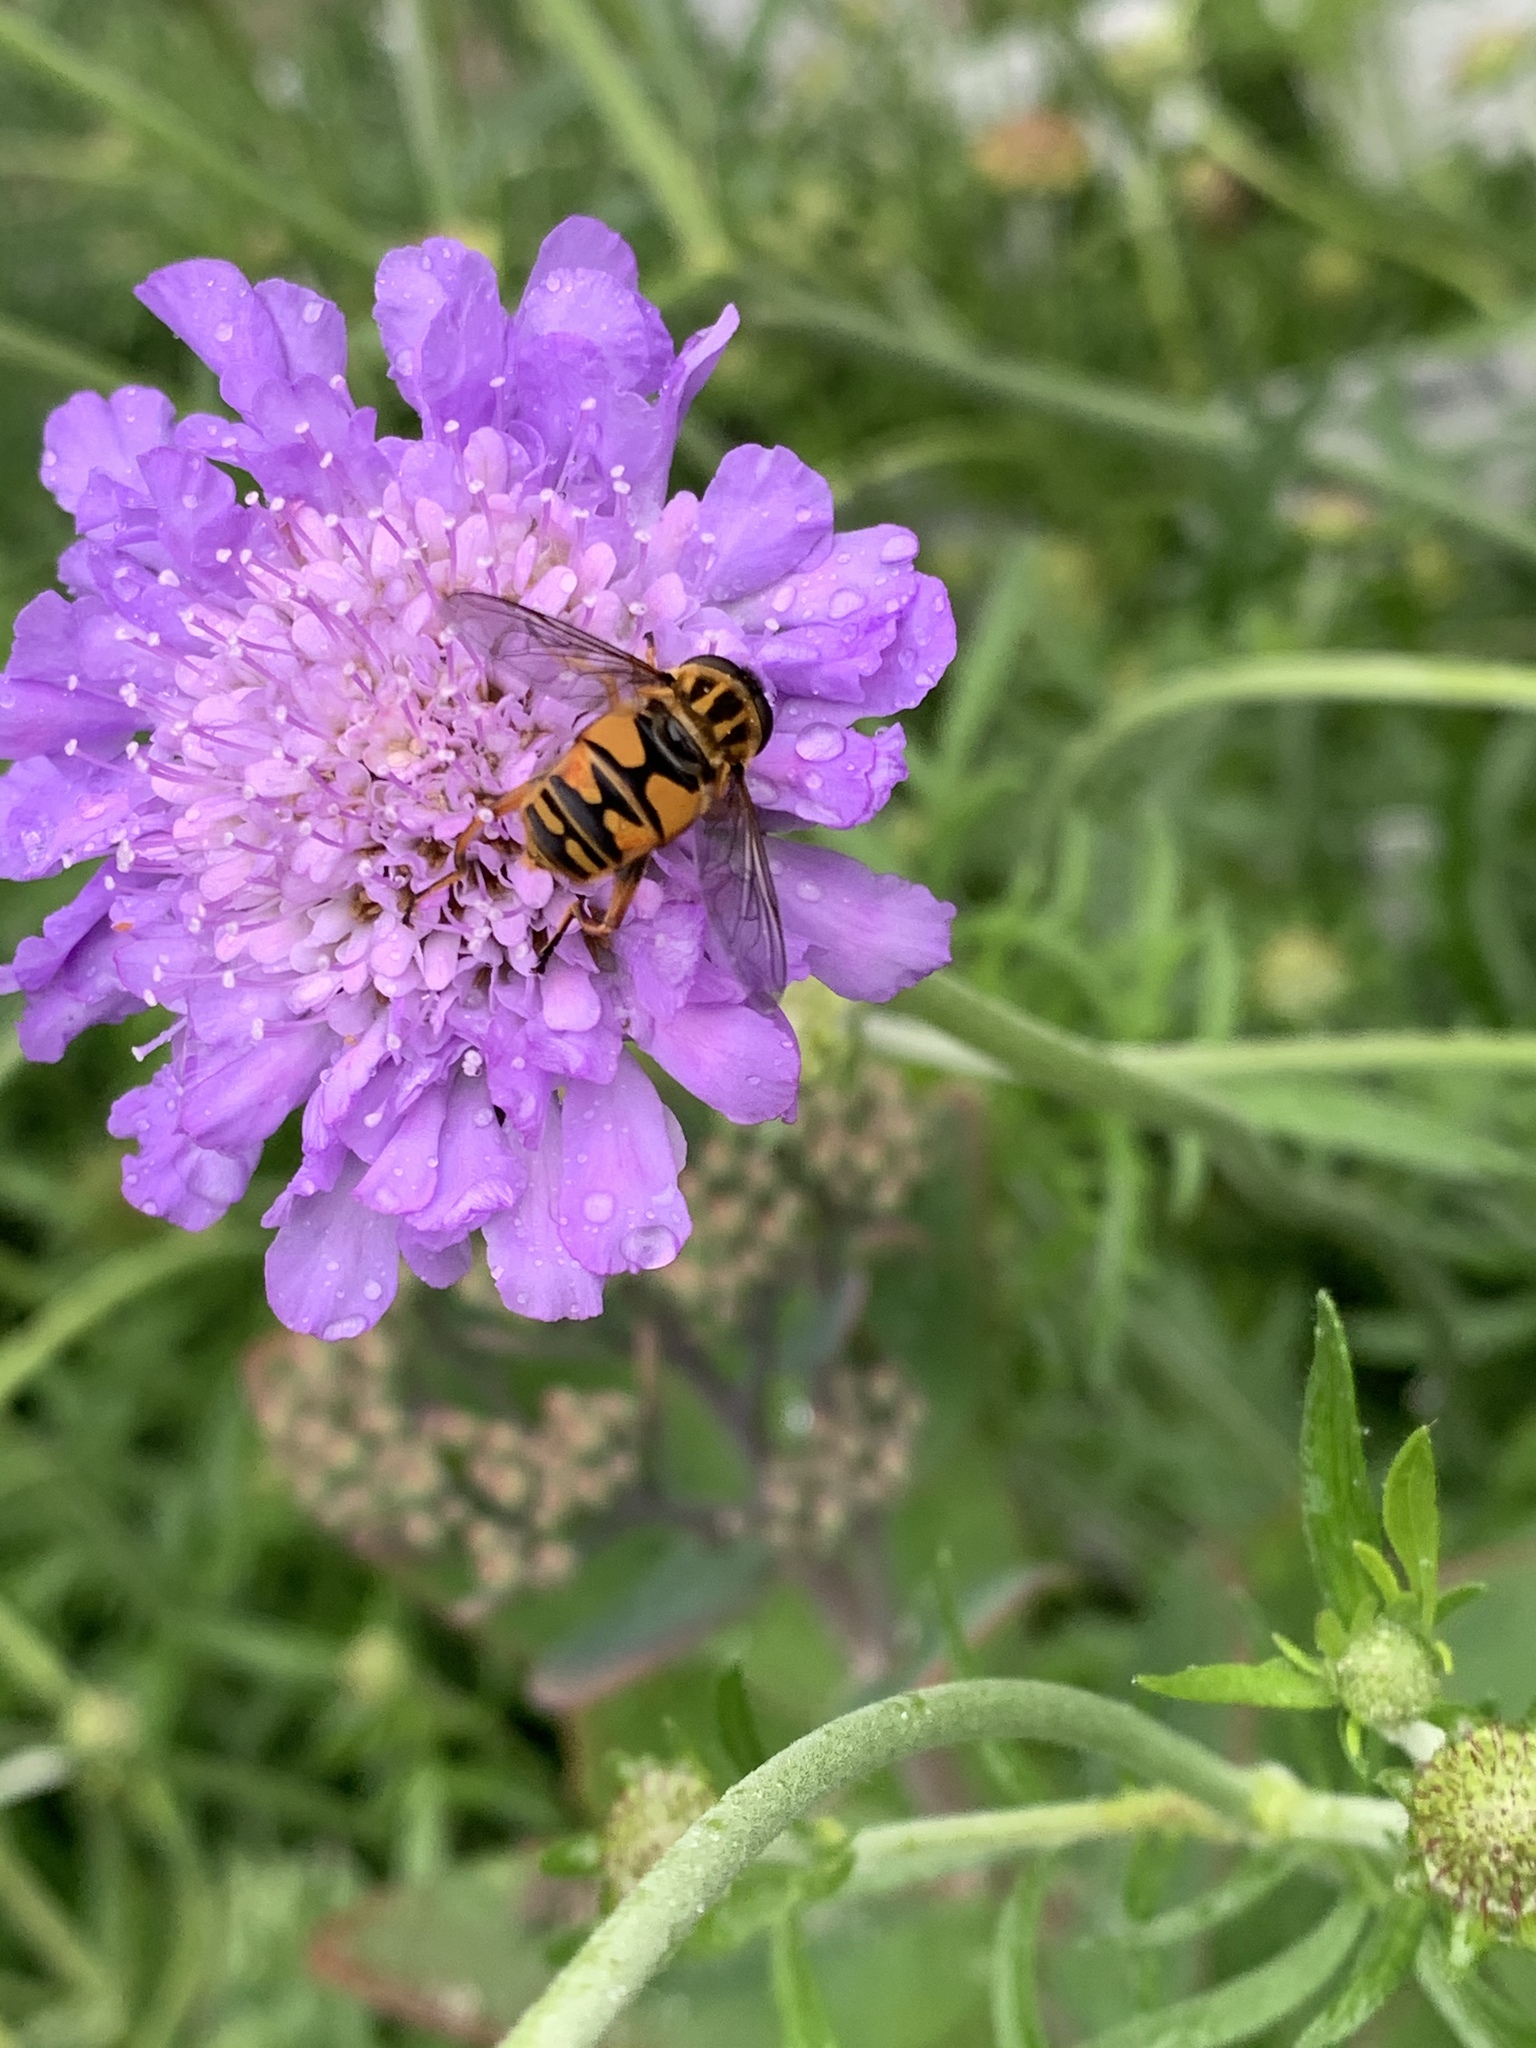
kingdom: Animalia
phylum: Arthropoda
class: Insecta
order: Diptera
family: Syrphidae
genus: Helophilus
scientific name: Helophilus pendulus
